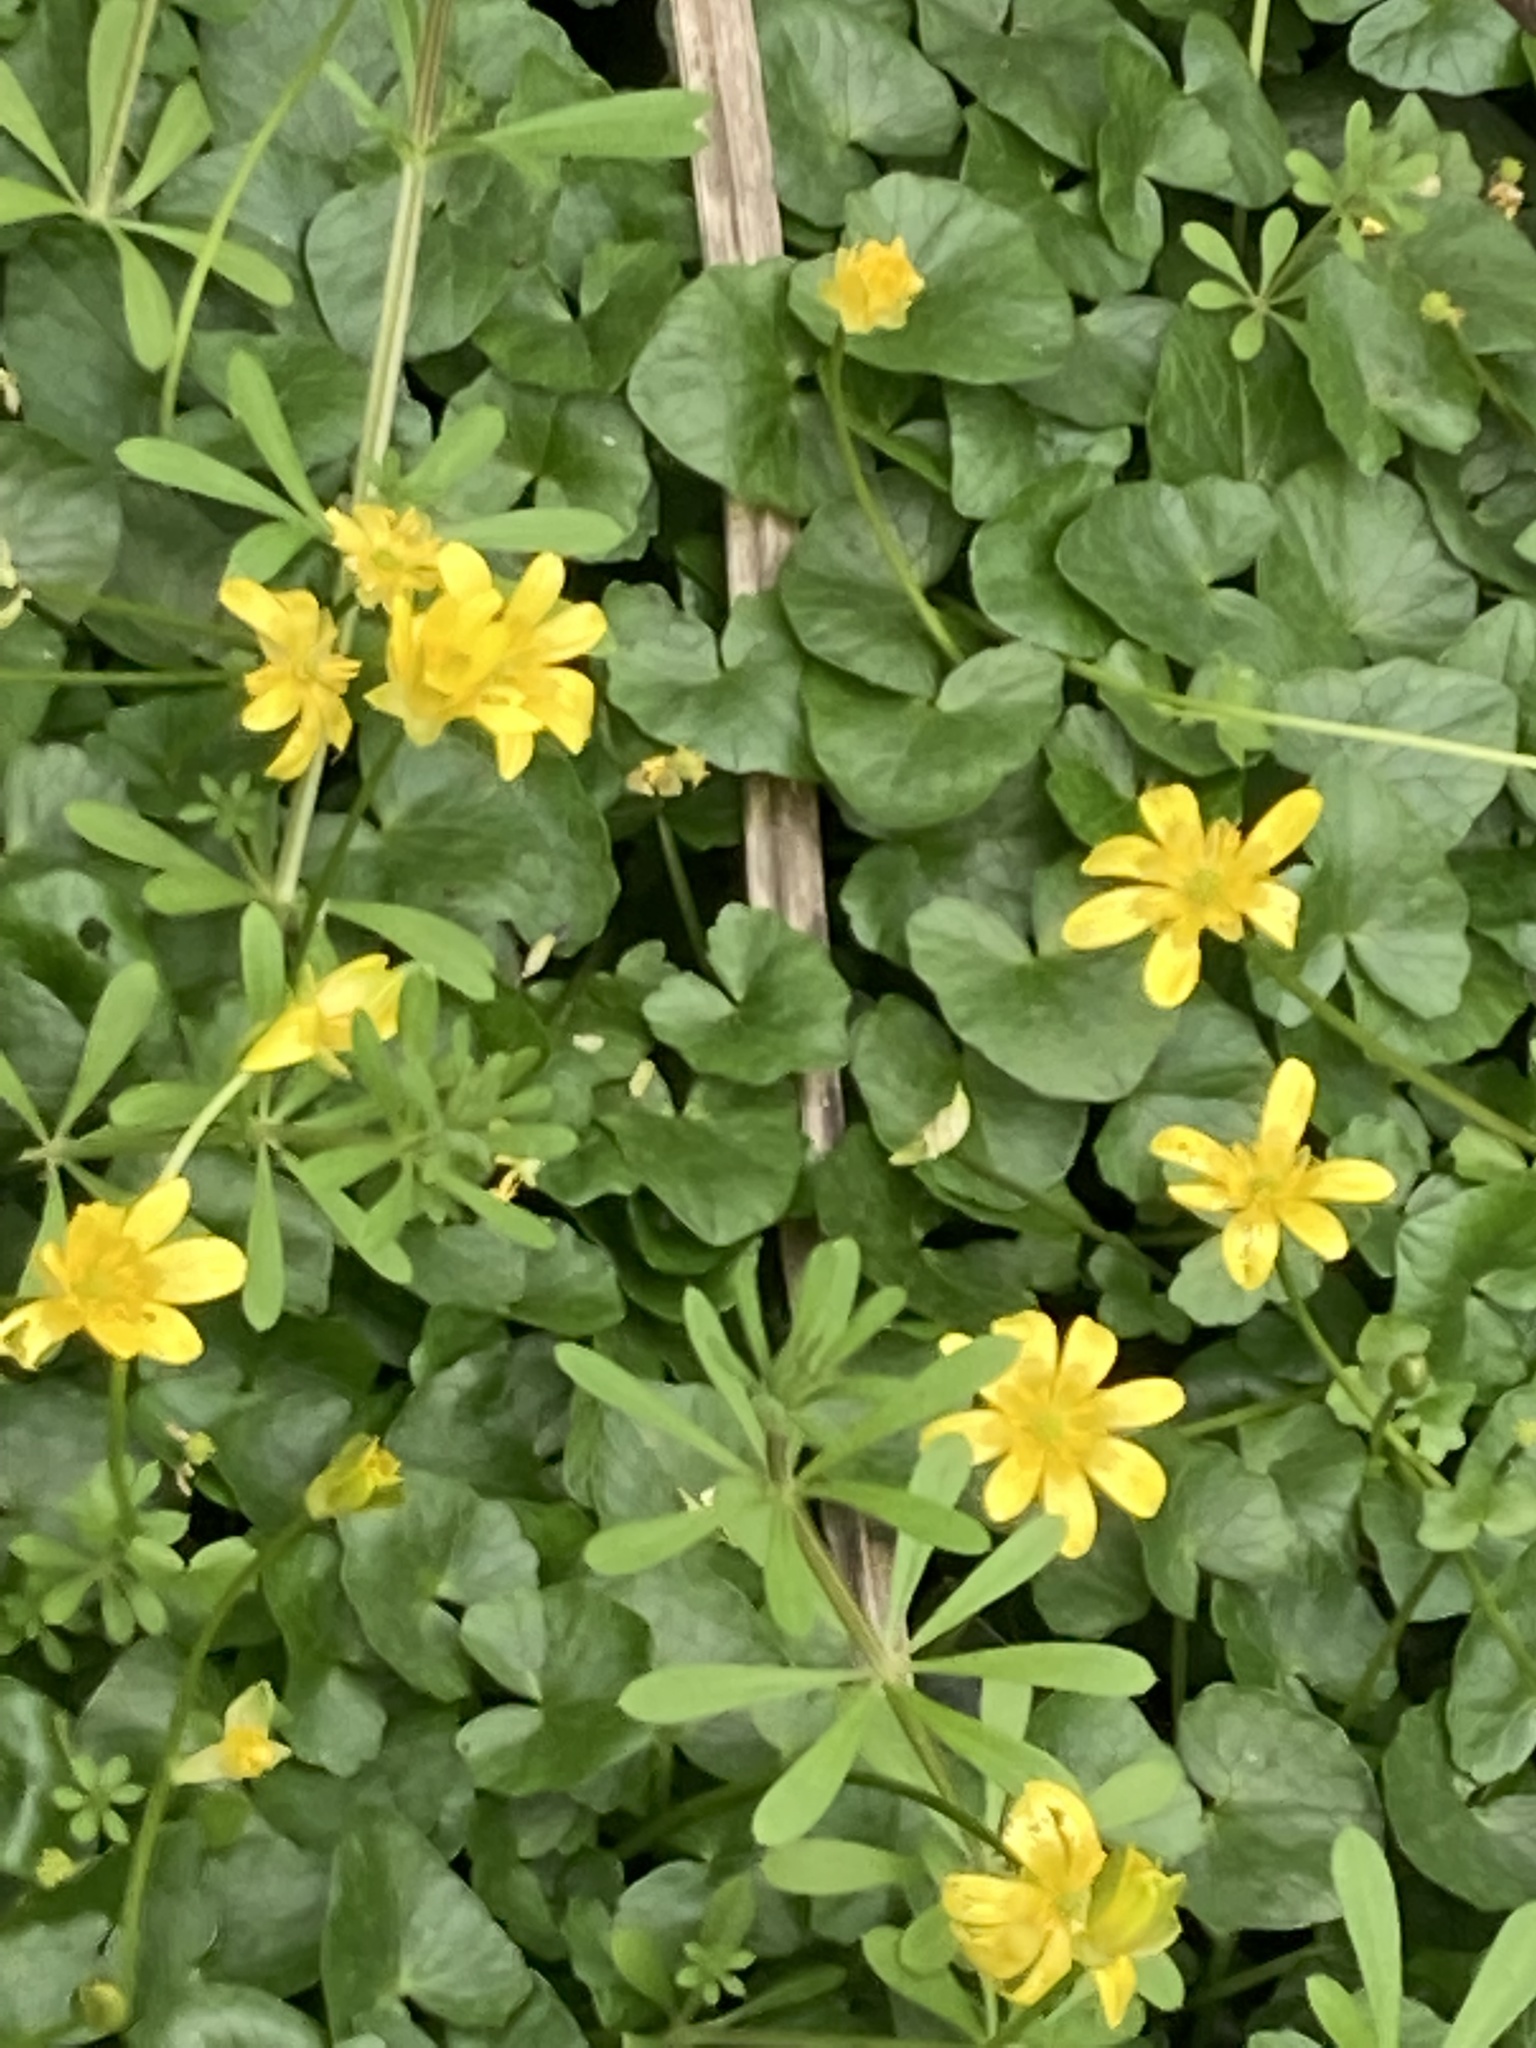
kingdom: Plantae
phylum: Tracheophyta
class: Magnoliopsida
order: Ranunculales
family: Ranunculaceae
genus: Ficaria
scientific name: Ficaria verna
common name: Lesser celandine
